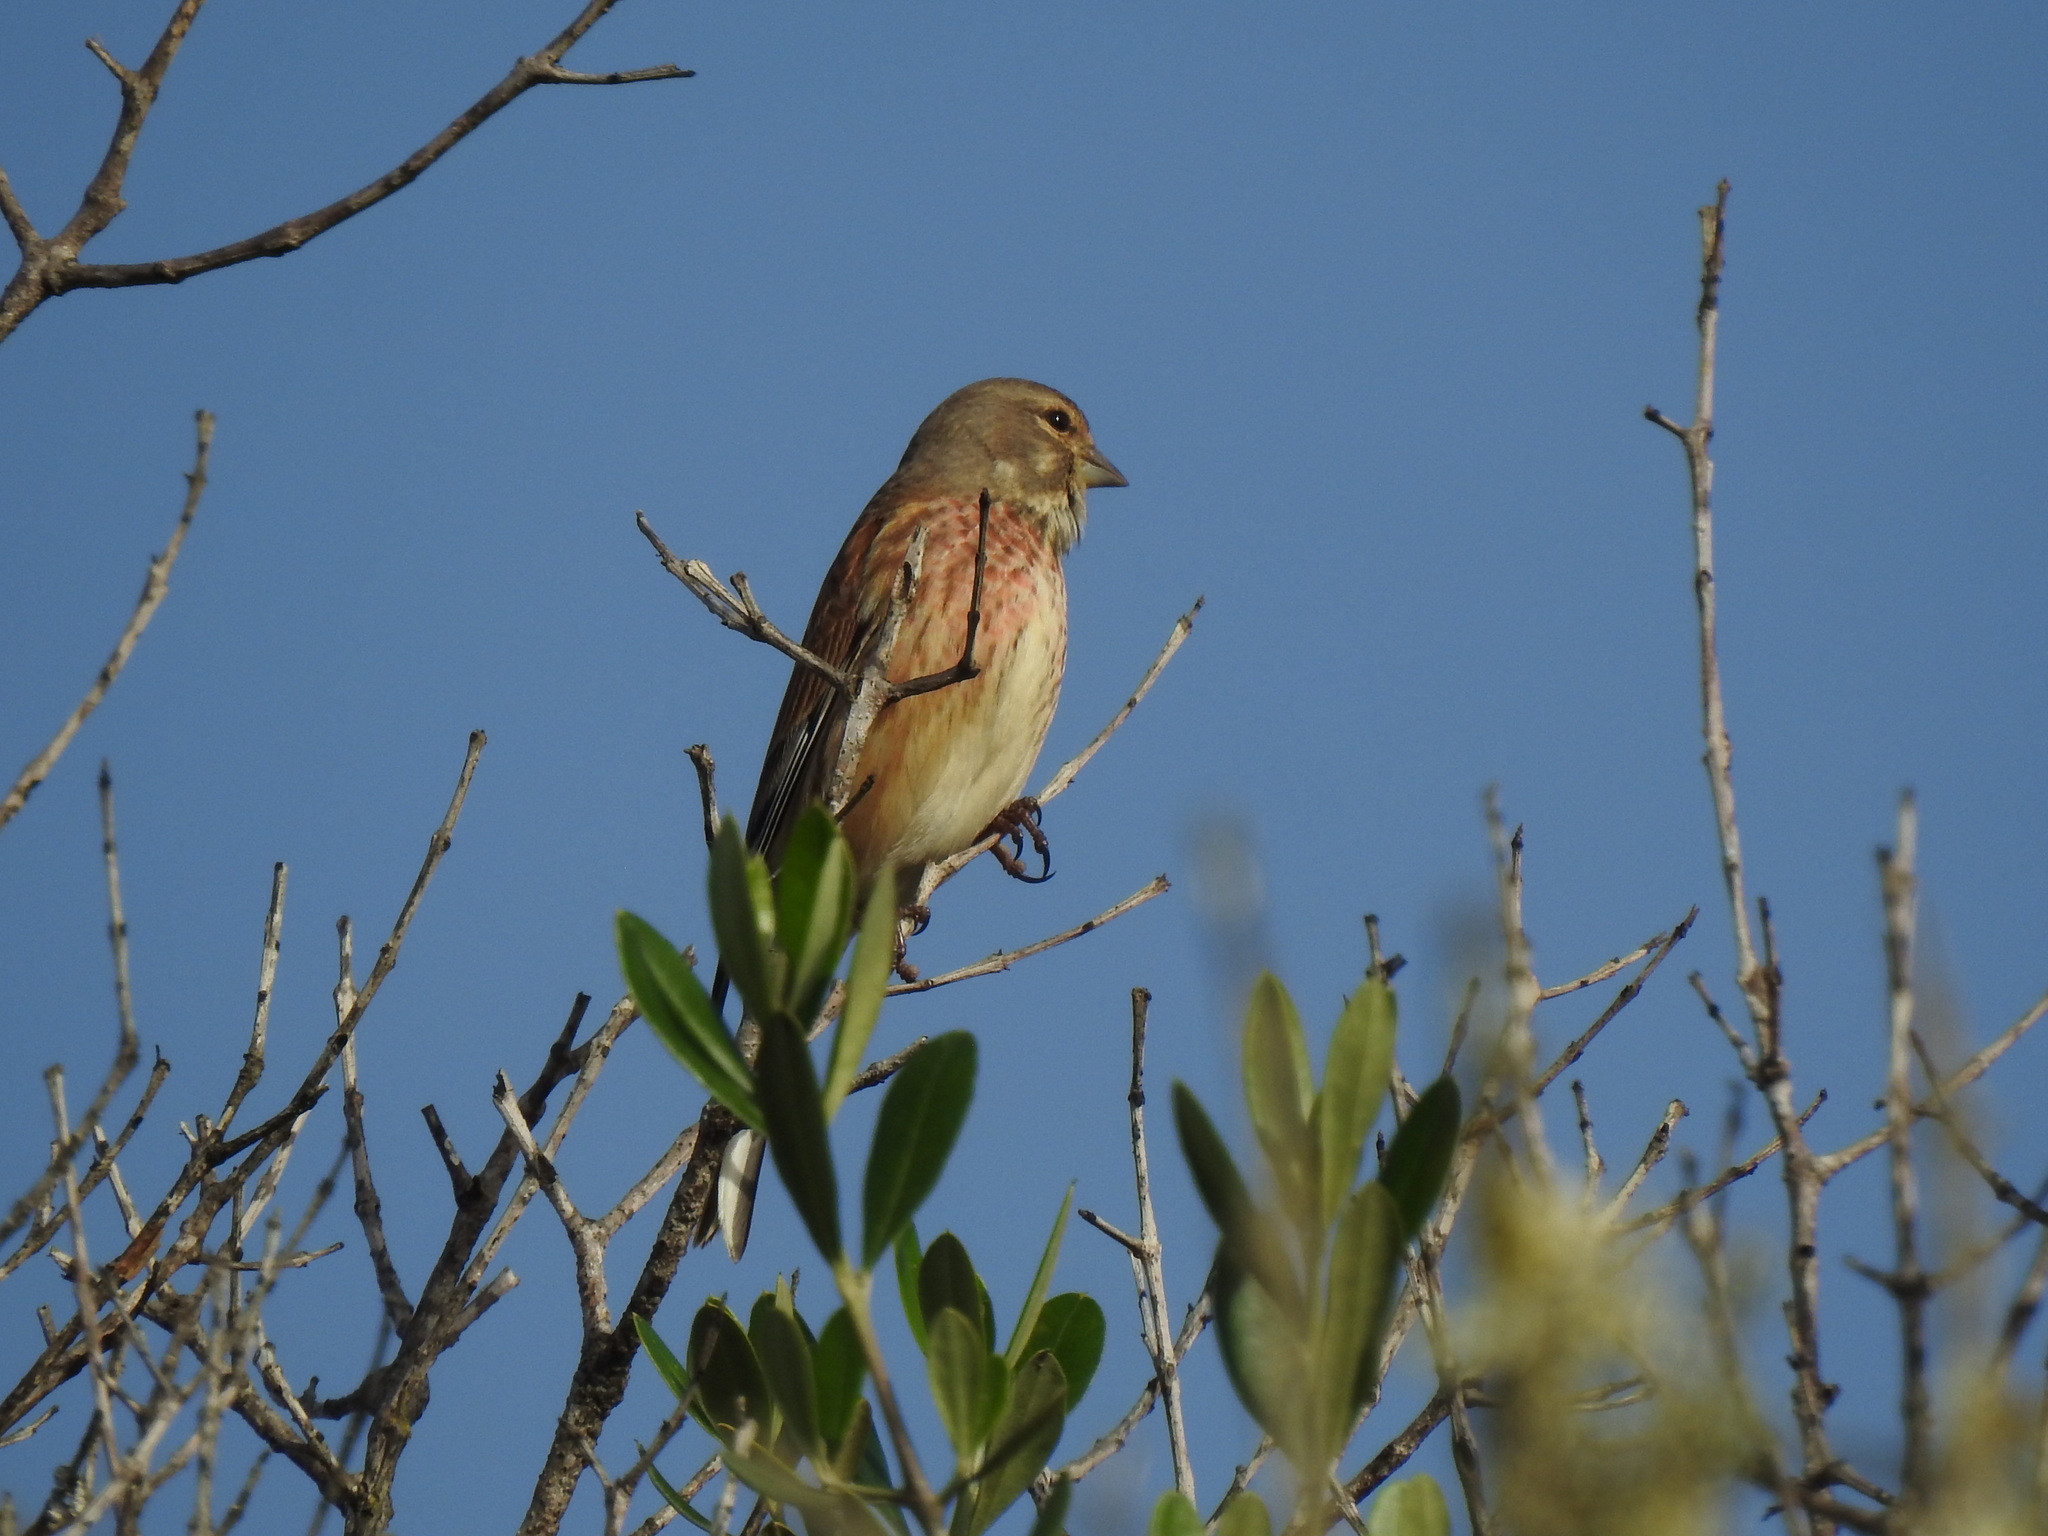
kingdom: Animalia
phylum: Chordata
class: Aves
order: Passeriformes
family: Fringillidae
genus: Linaria
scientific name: Linaria cannabina
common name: Common linnet
